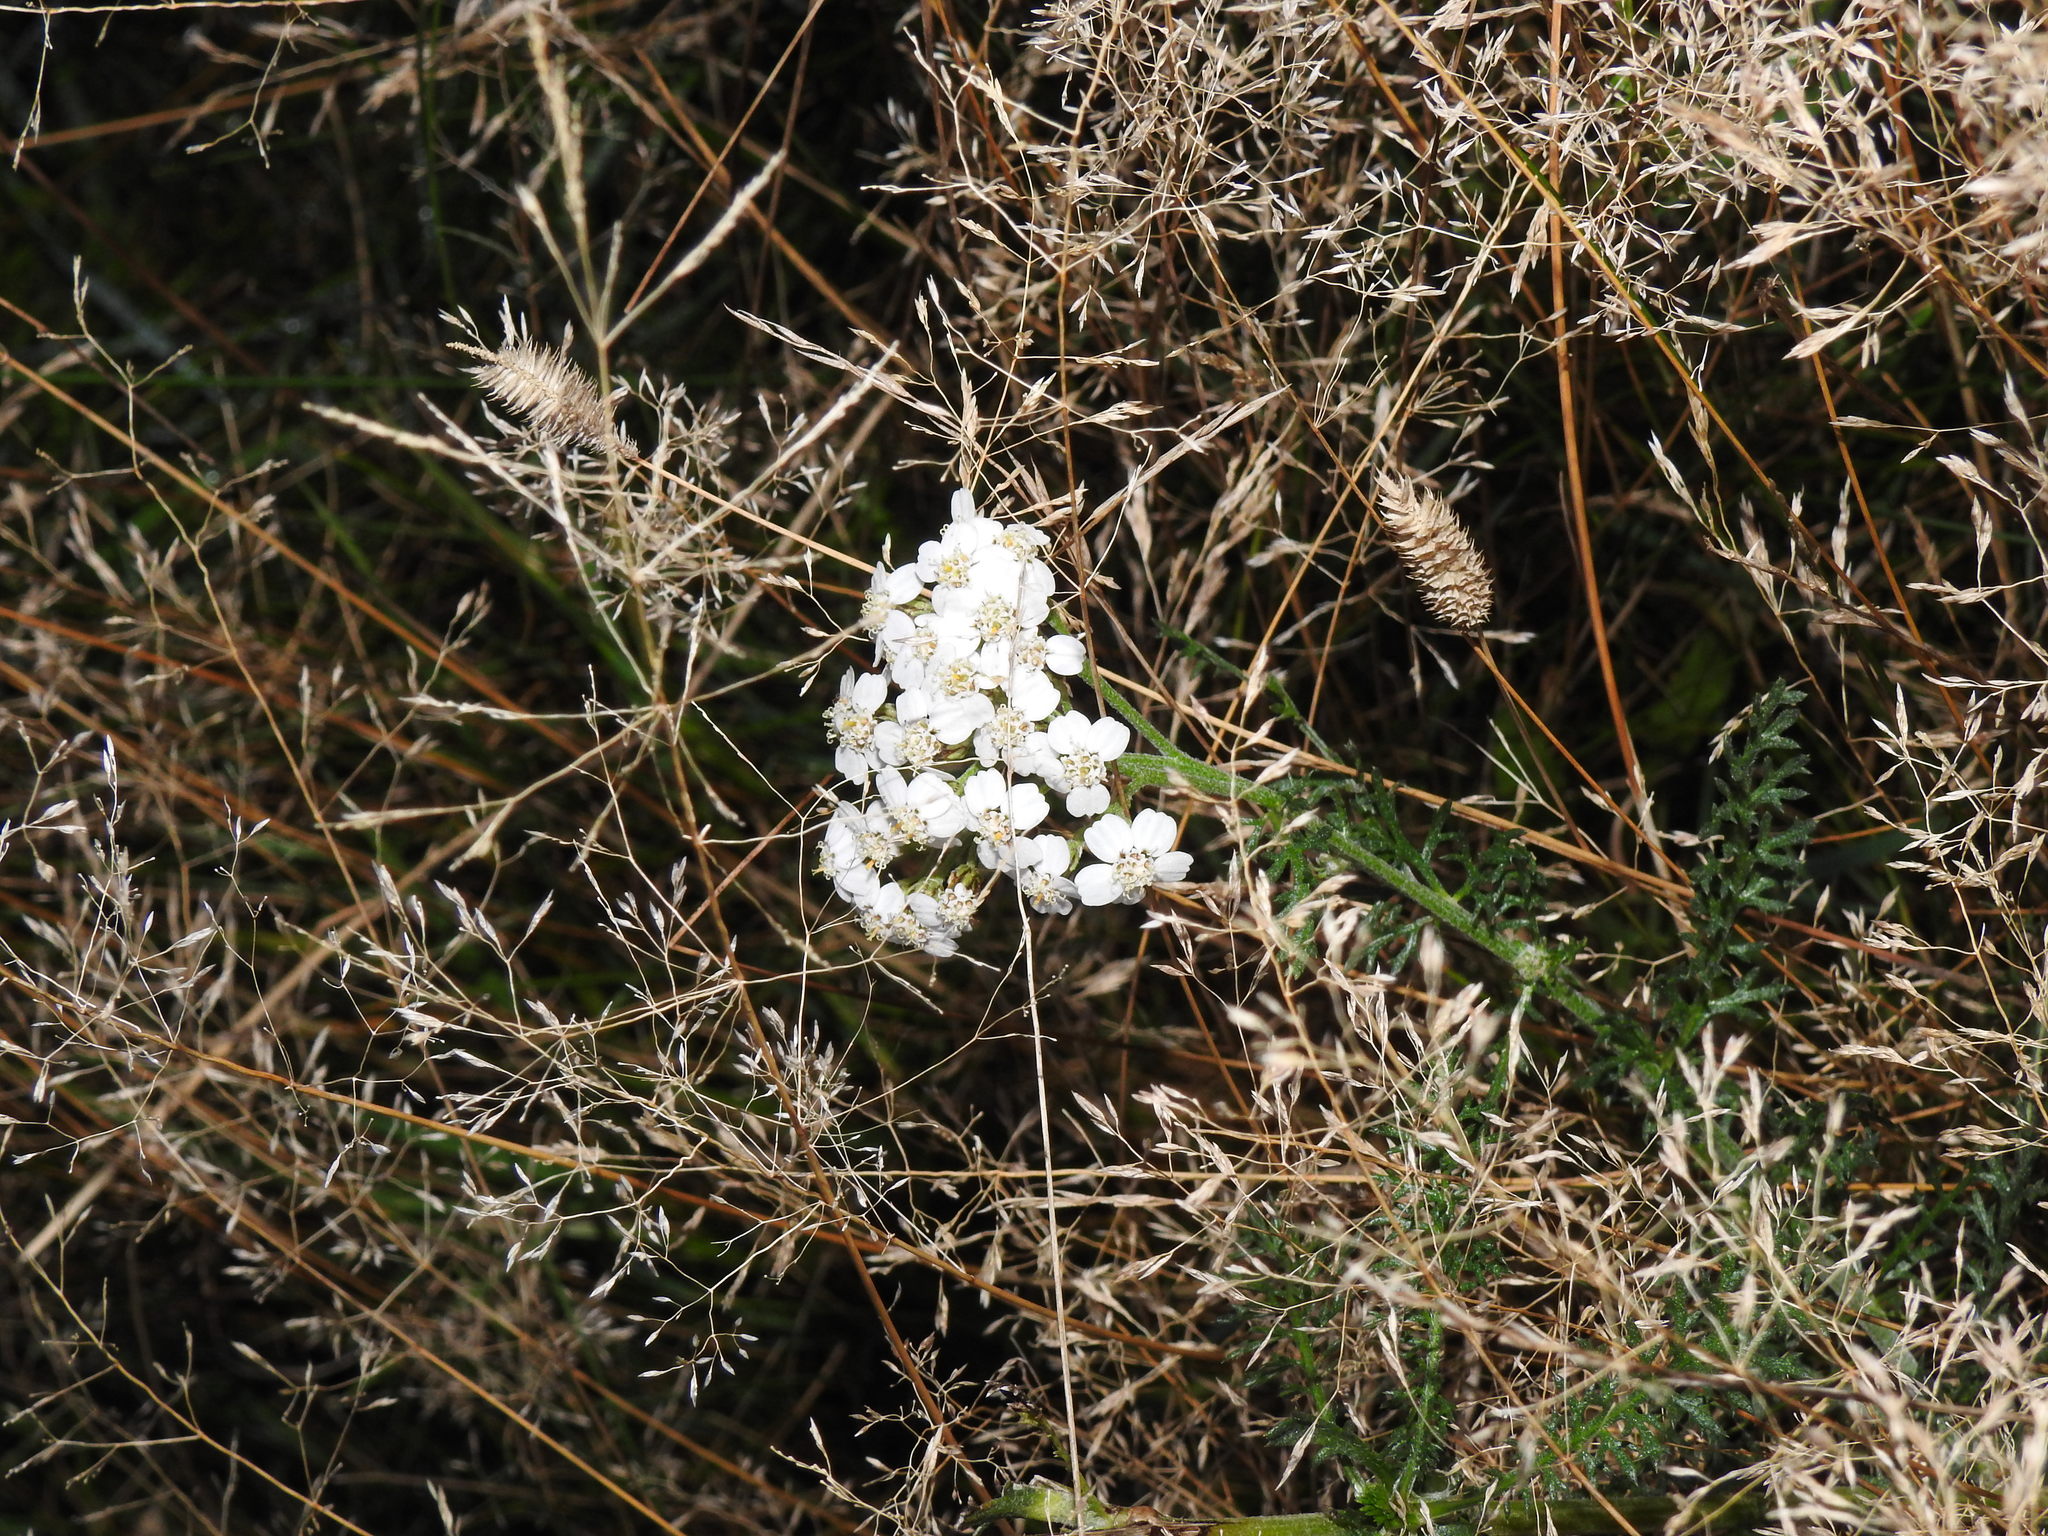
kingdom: Plantae
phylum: Tracheophyta
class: Magnoliopsida
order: Asterales
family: Asteraceae
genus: Achillea
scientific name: Achillea millefolium
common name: Yarrow
